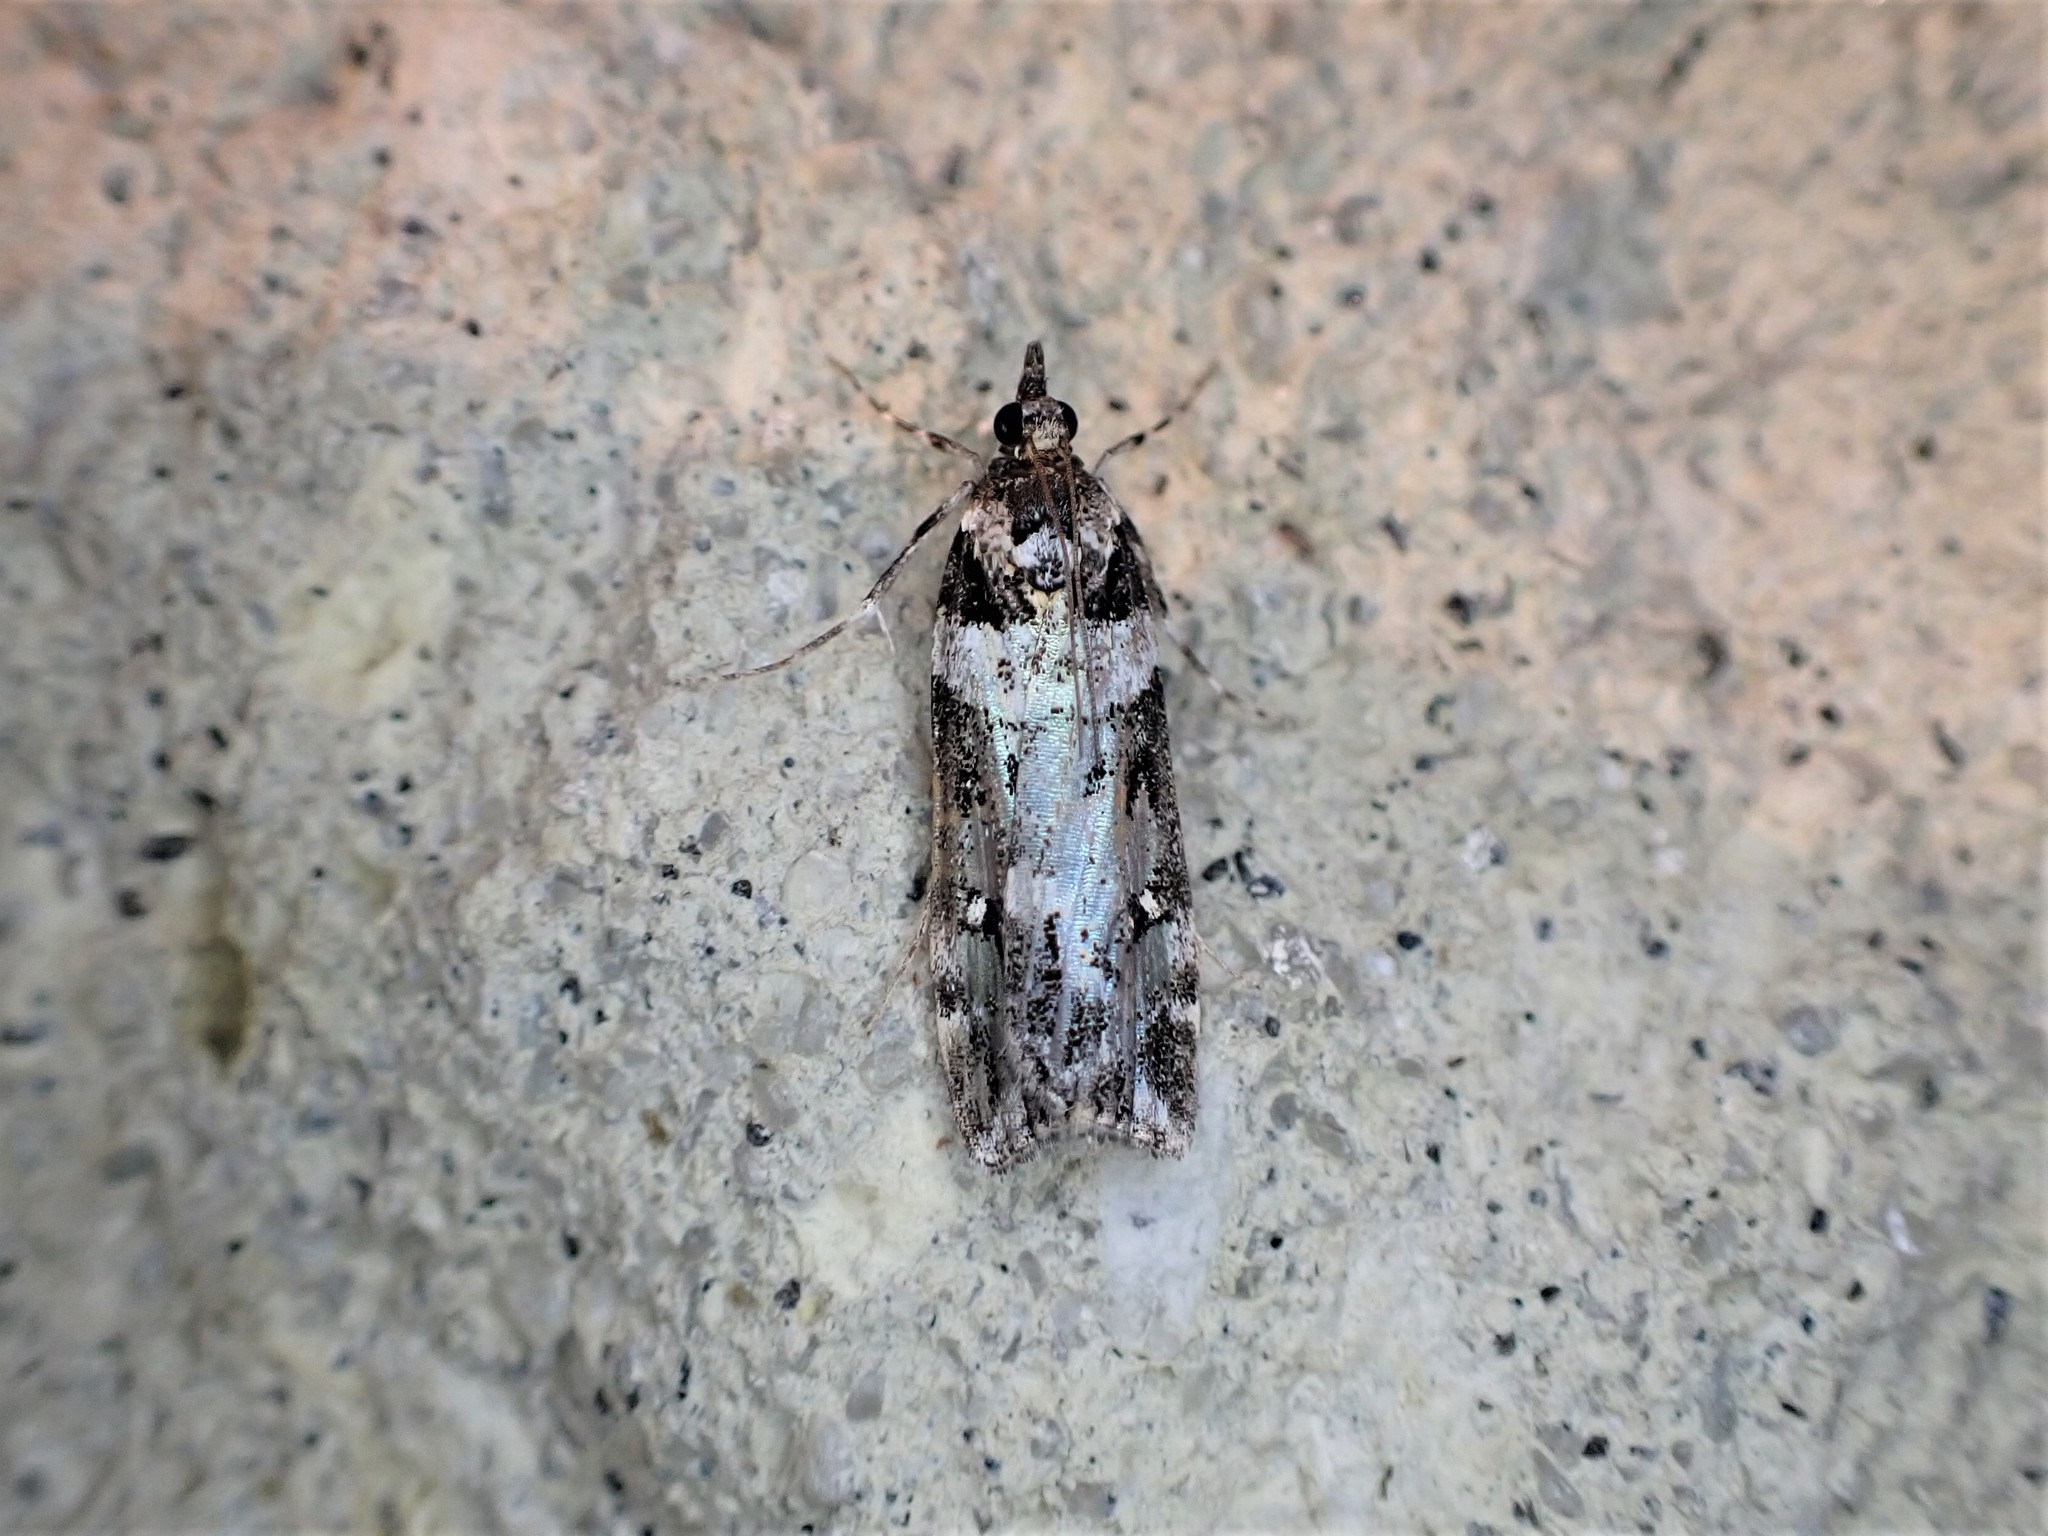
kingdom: Animalia
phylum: Arthropoda
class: Insecta
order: Lepidoptera
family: Crambidae
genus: Eudonia
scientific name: Eudonia diphtheralis
